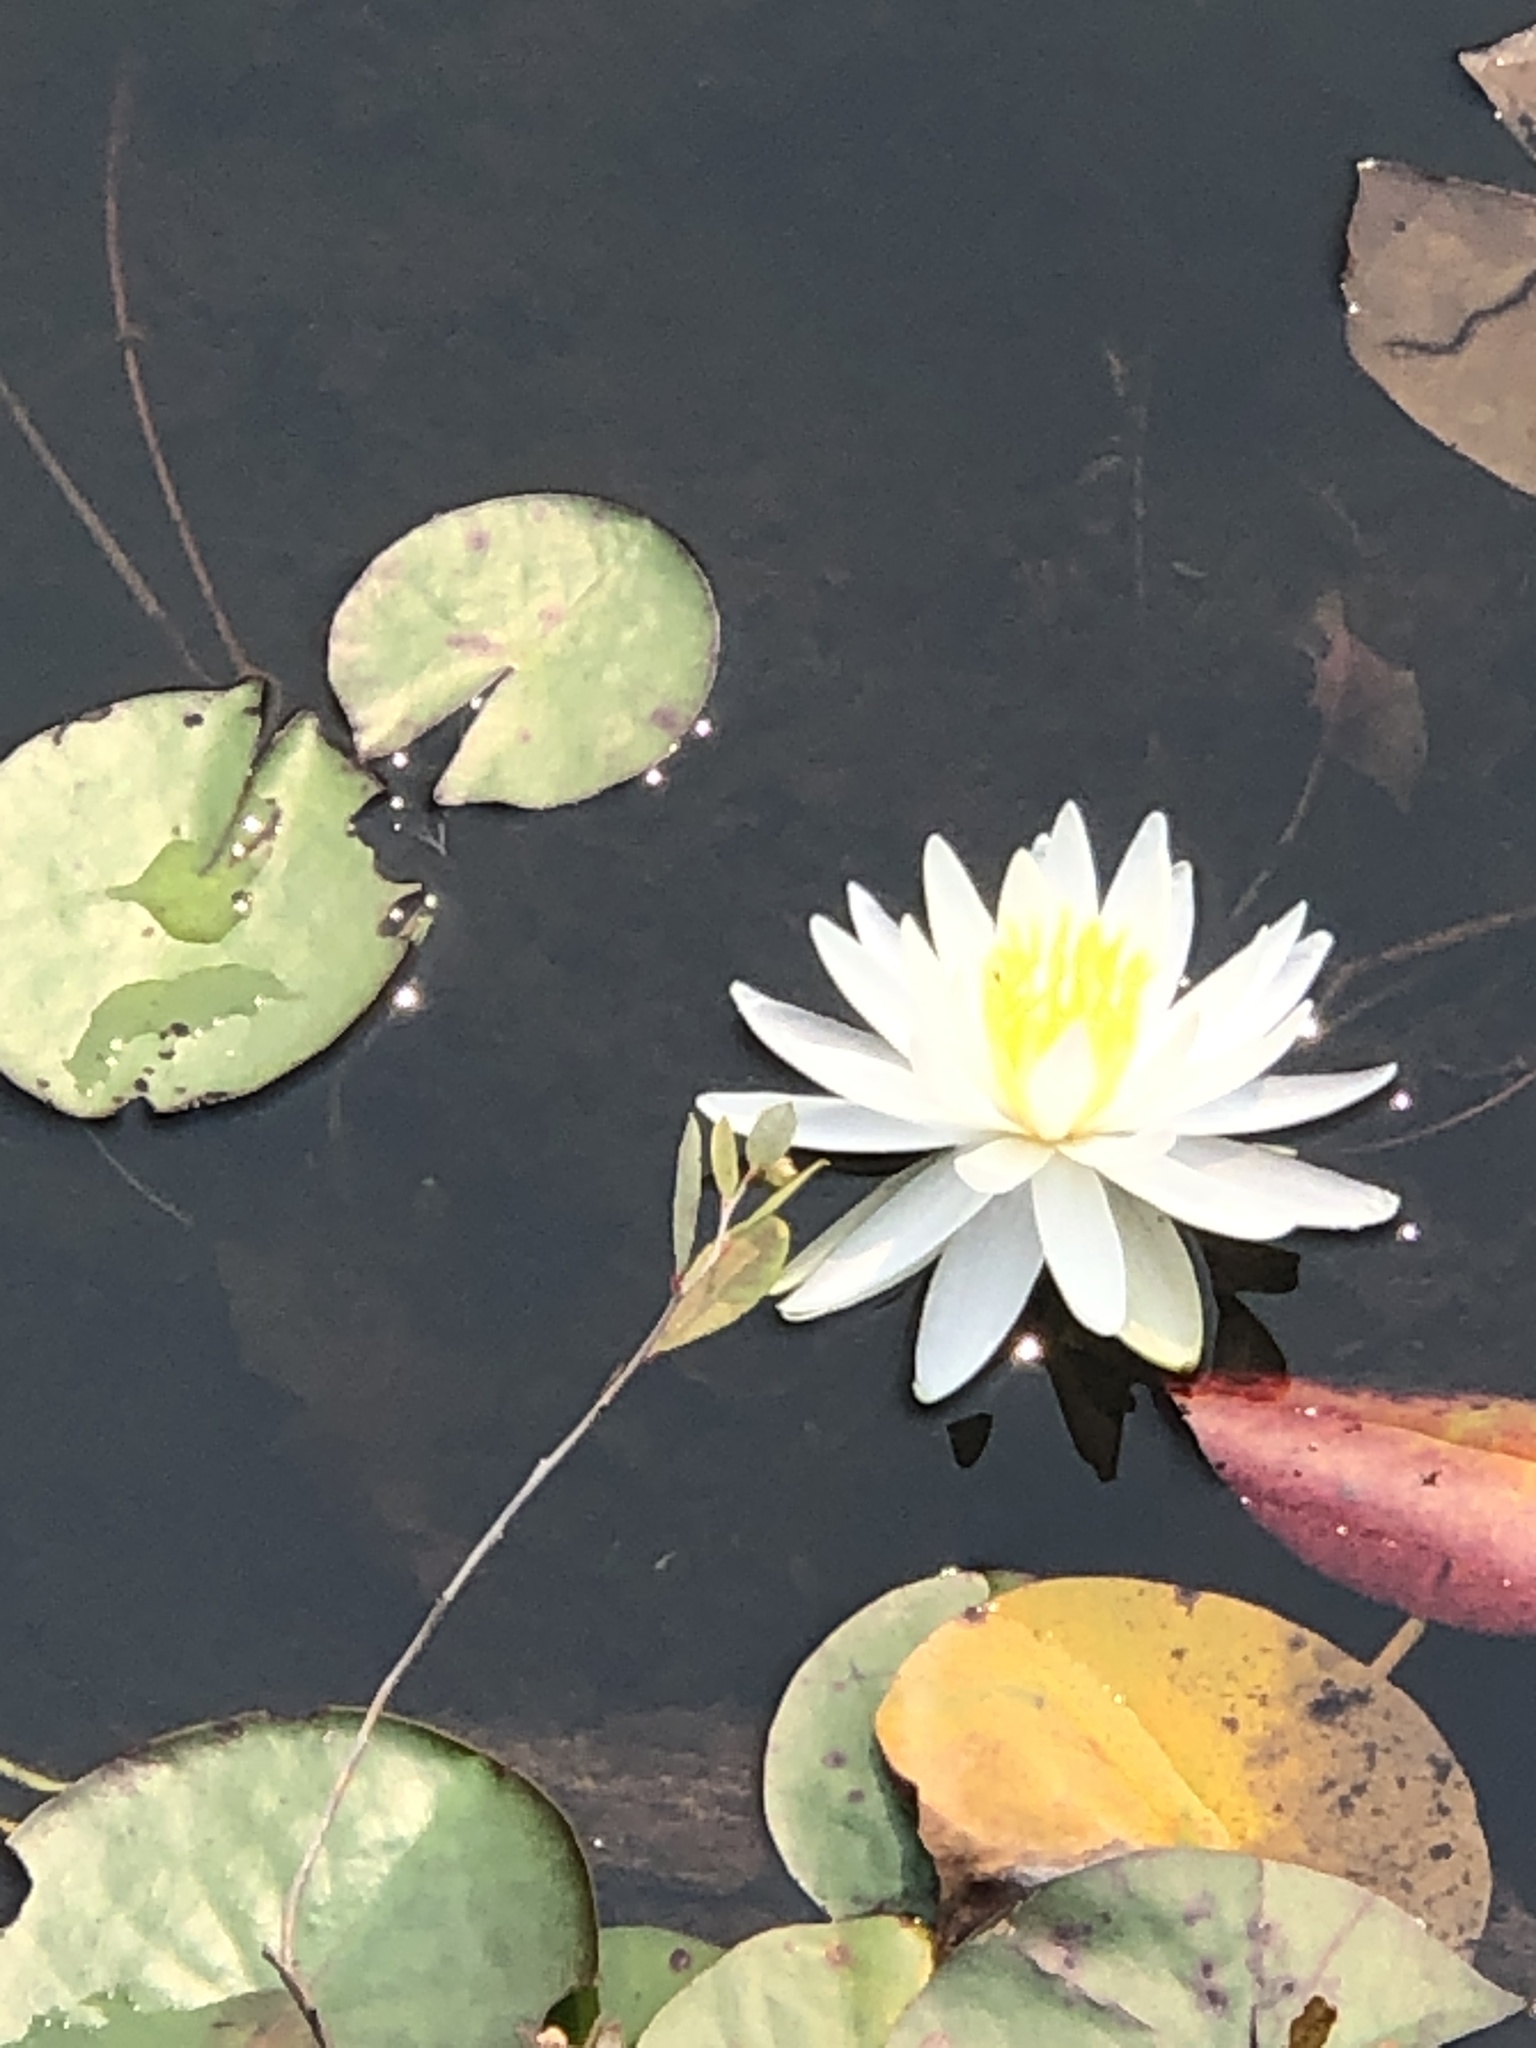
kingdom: Plantae
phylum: Tracheophyta
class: Magnoliopsida
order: Nymphaeales
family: Nymphaeaceae
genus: Nymphaea
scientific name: Nymphaea odorata
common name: Fragrant water-lily
